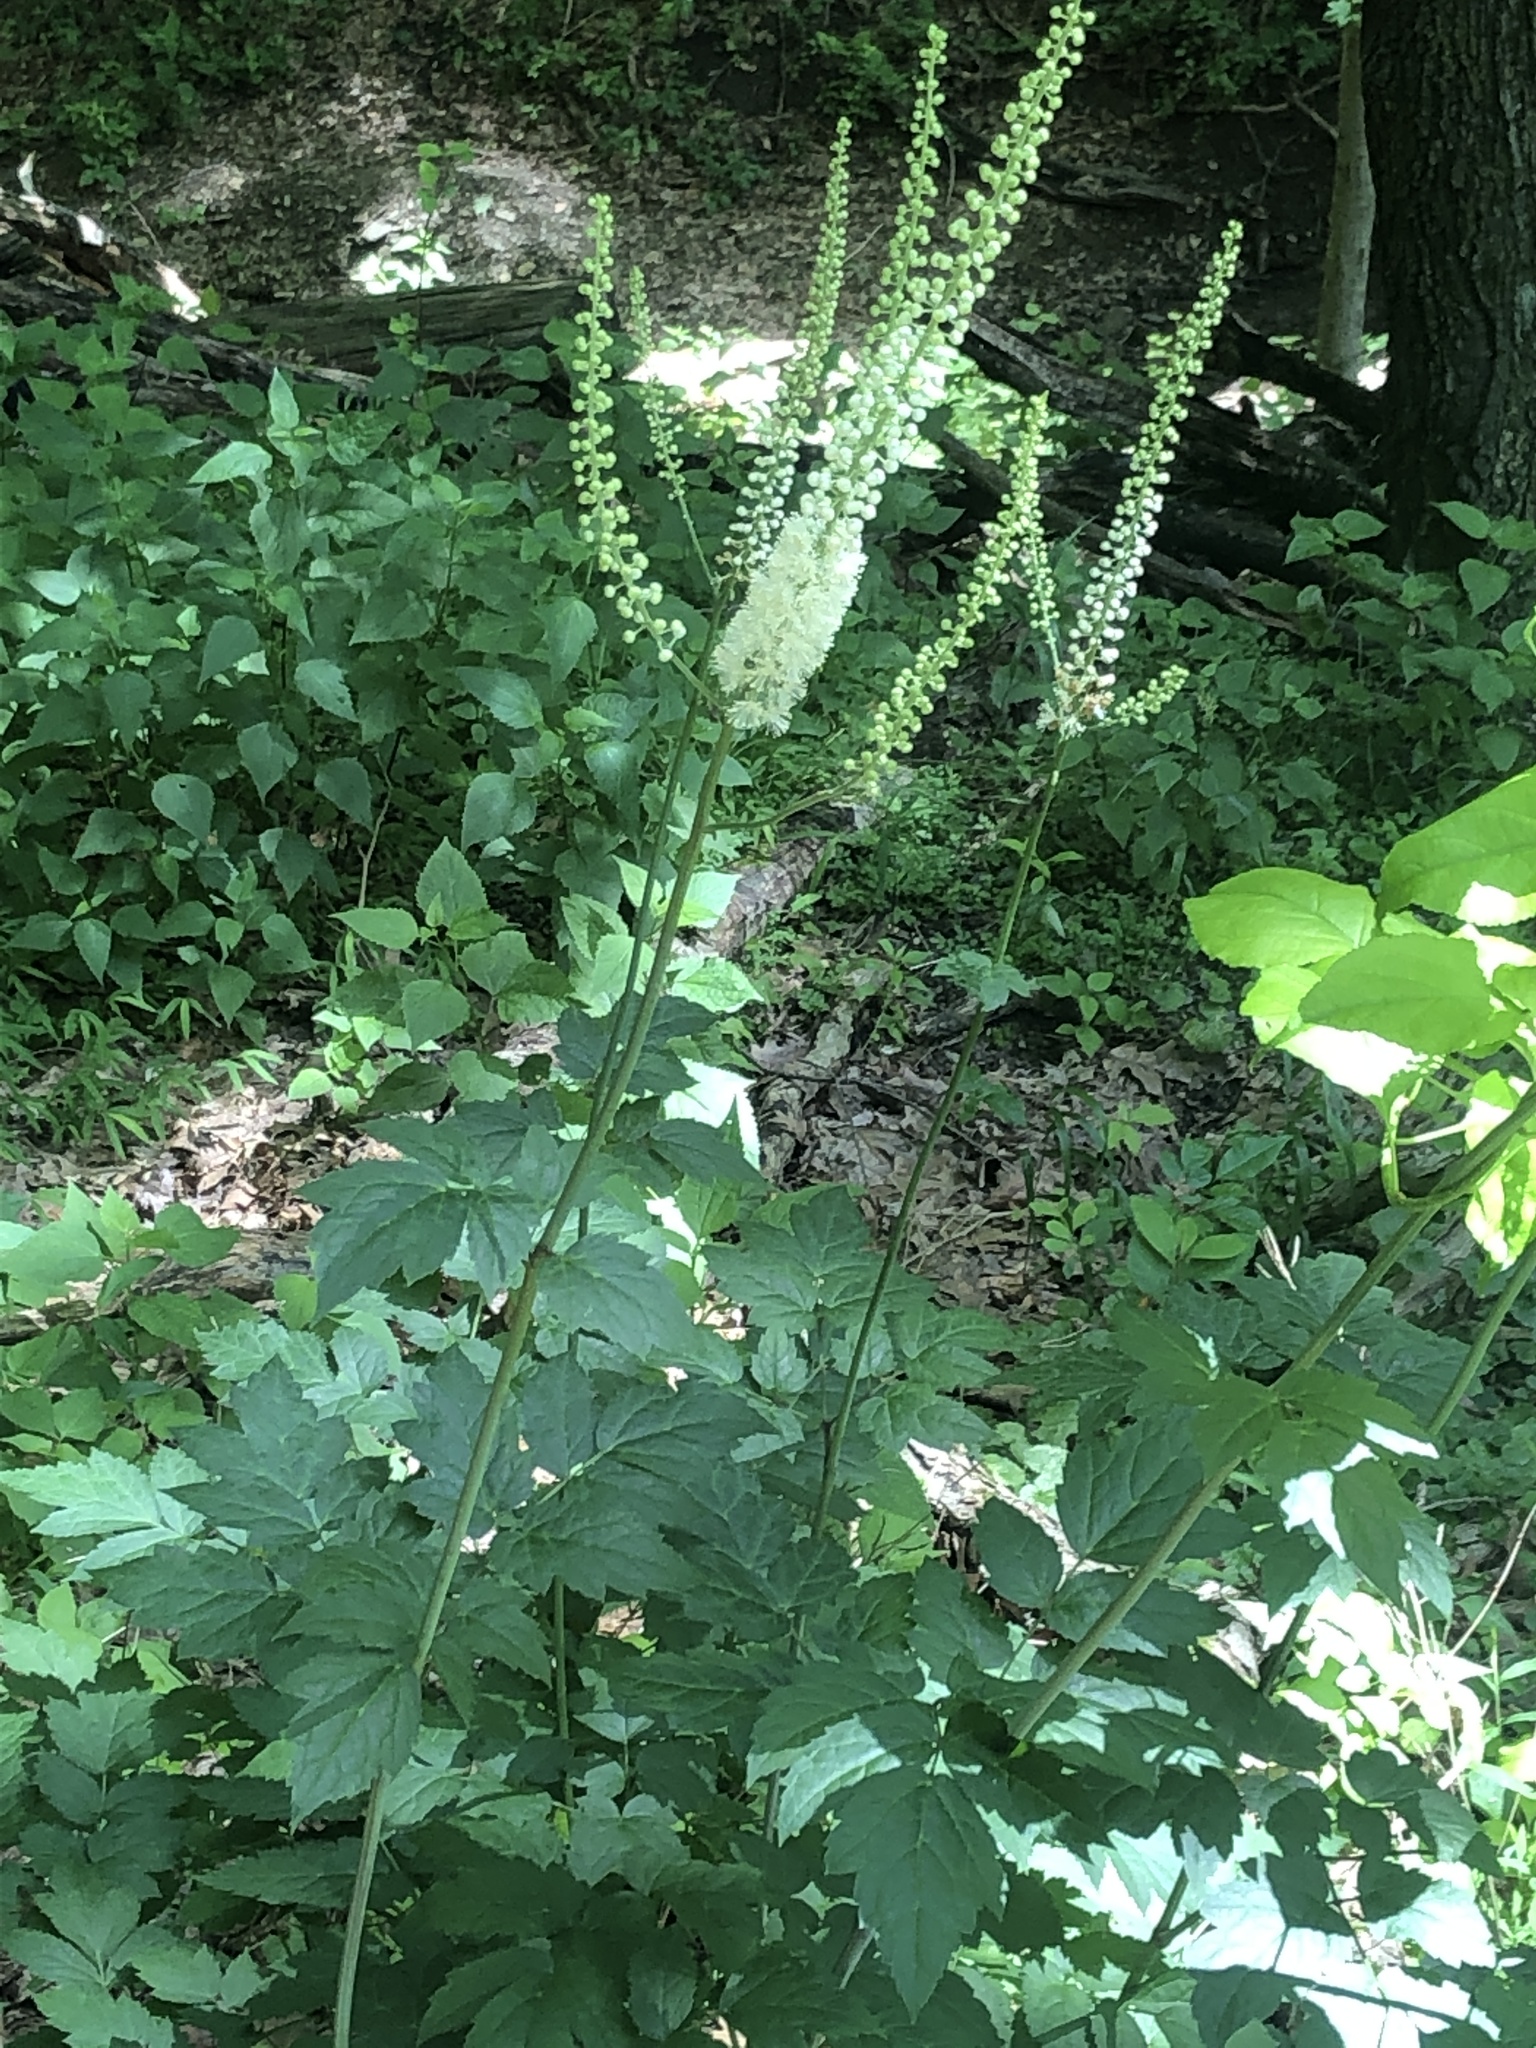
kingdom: Plantae
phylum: Tracheophyta
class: Magnoliopsida
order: Ranunculales
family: Ranunculaceae
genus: Actaea
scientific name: Actaea racemosa
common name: Black cohosh
